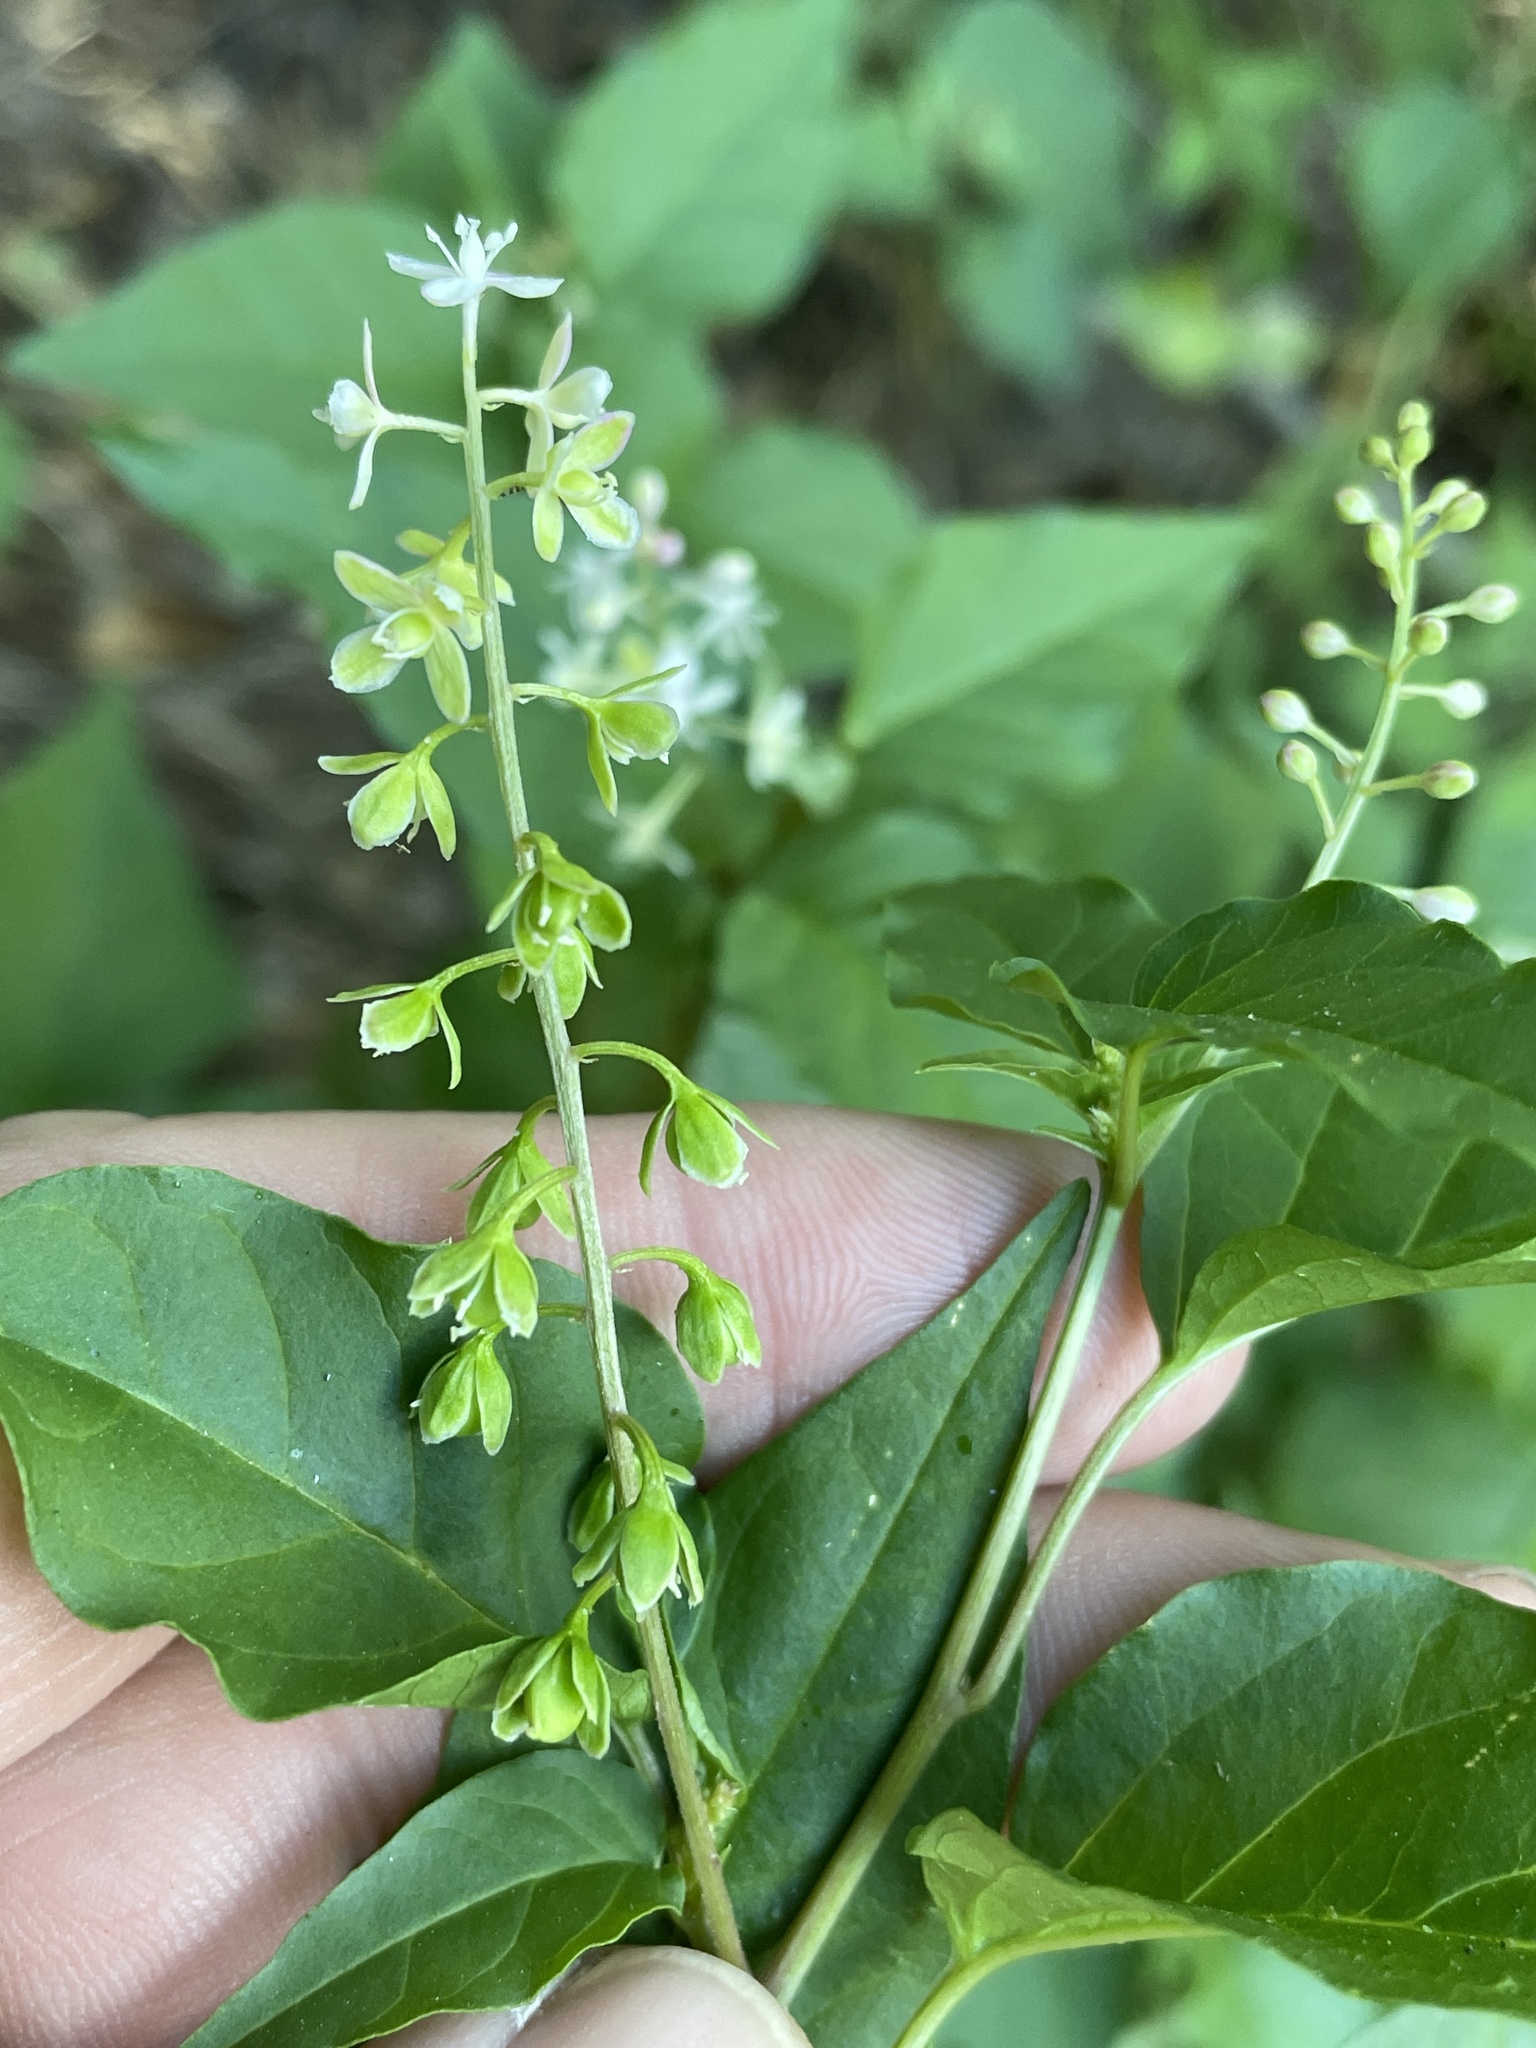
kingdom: Plantae
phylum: Tracheophyta
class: Magnoliopsida
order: Caryophyllales
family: Phytolaccaceae
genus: Rivina
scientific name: Rivina humilis
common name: Rougeplant
